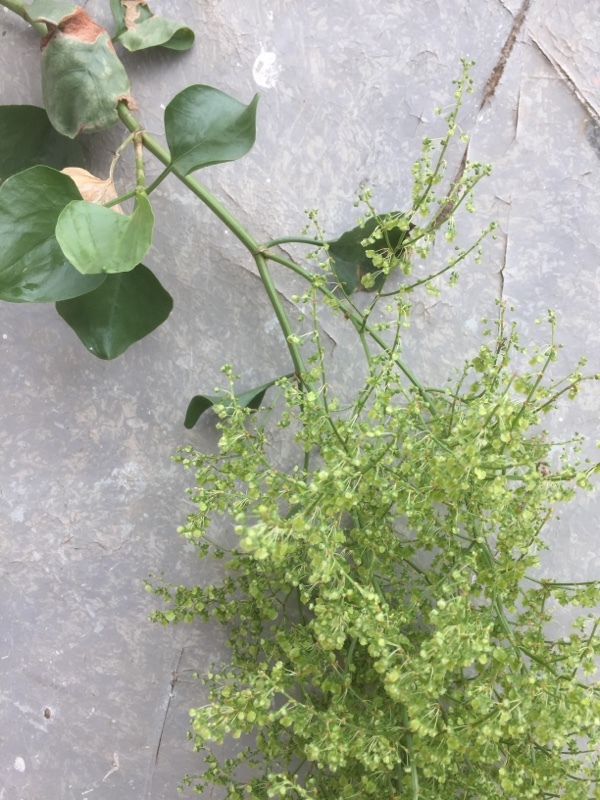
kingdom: Plantae
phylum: Tracheophyta
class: Magnoliopsida
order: Caryophyllales
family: Polygonaceae
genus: Rumex
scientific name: Rumex lunaria
